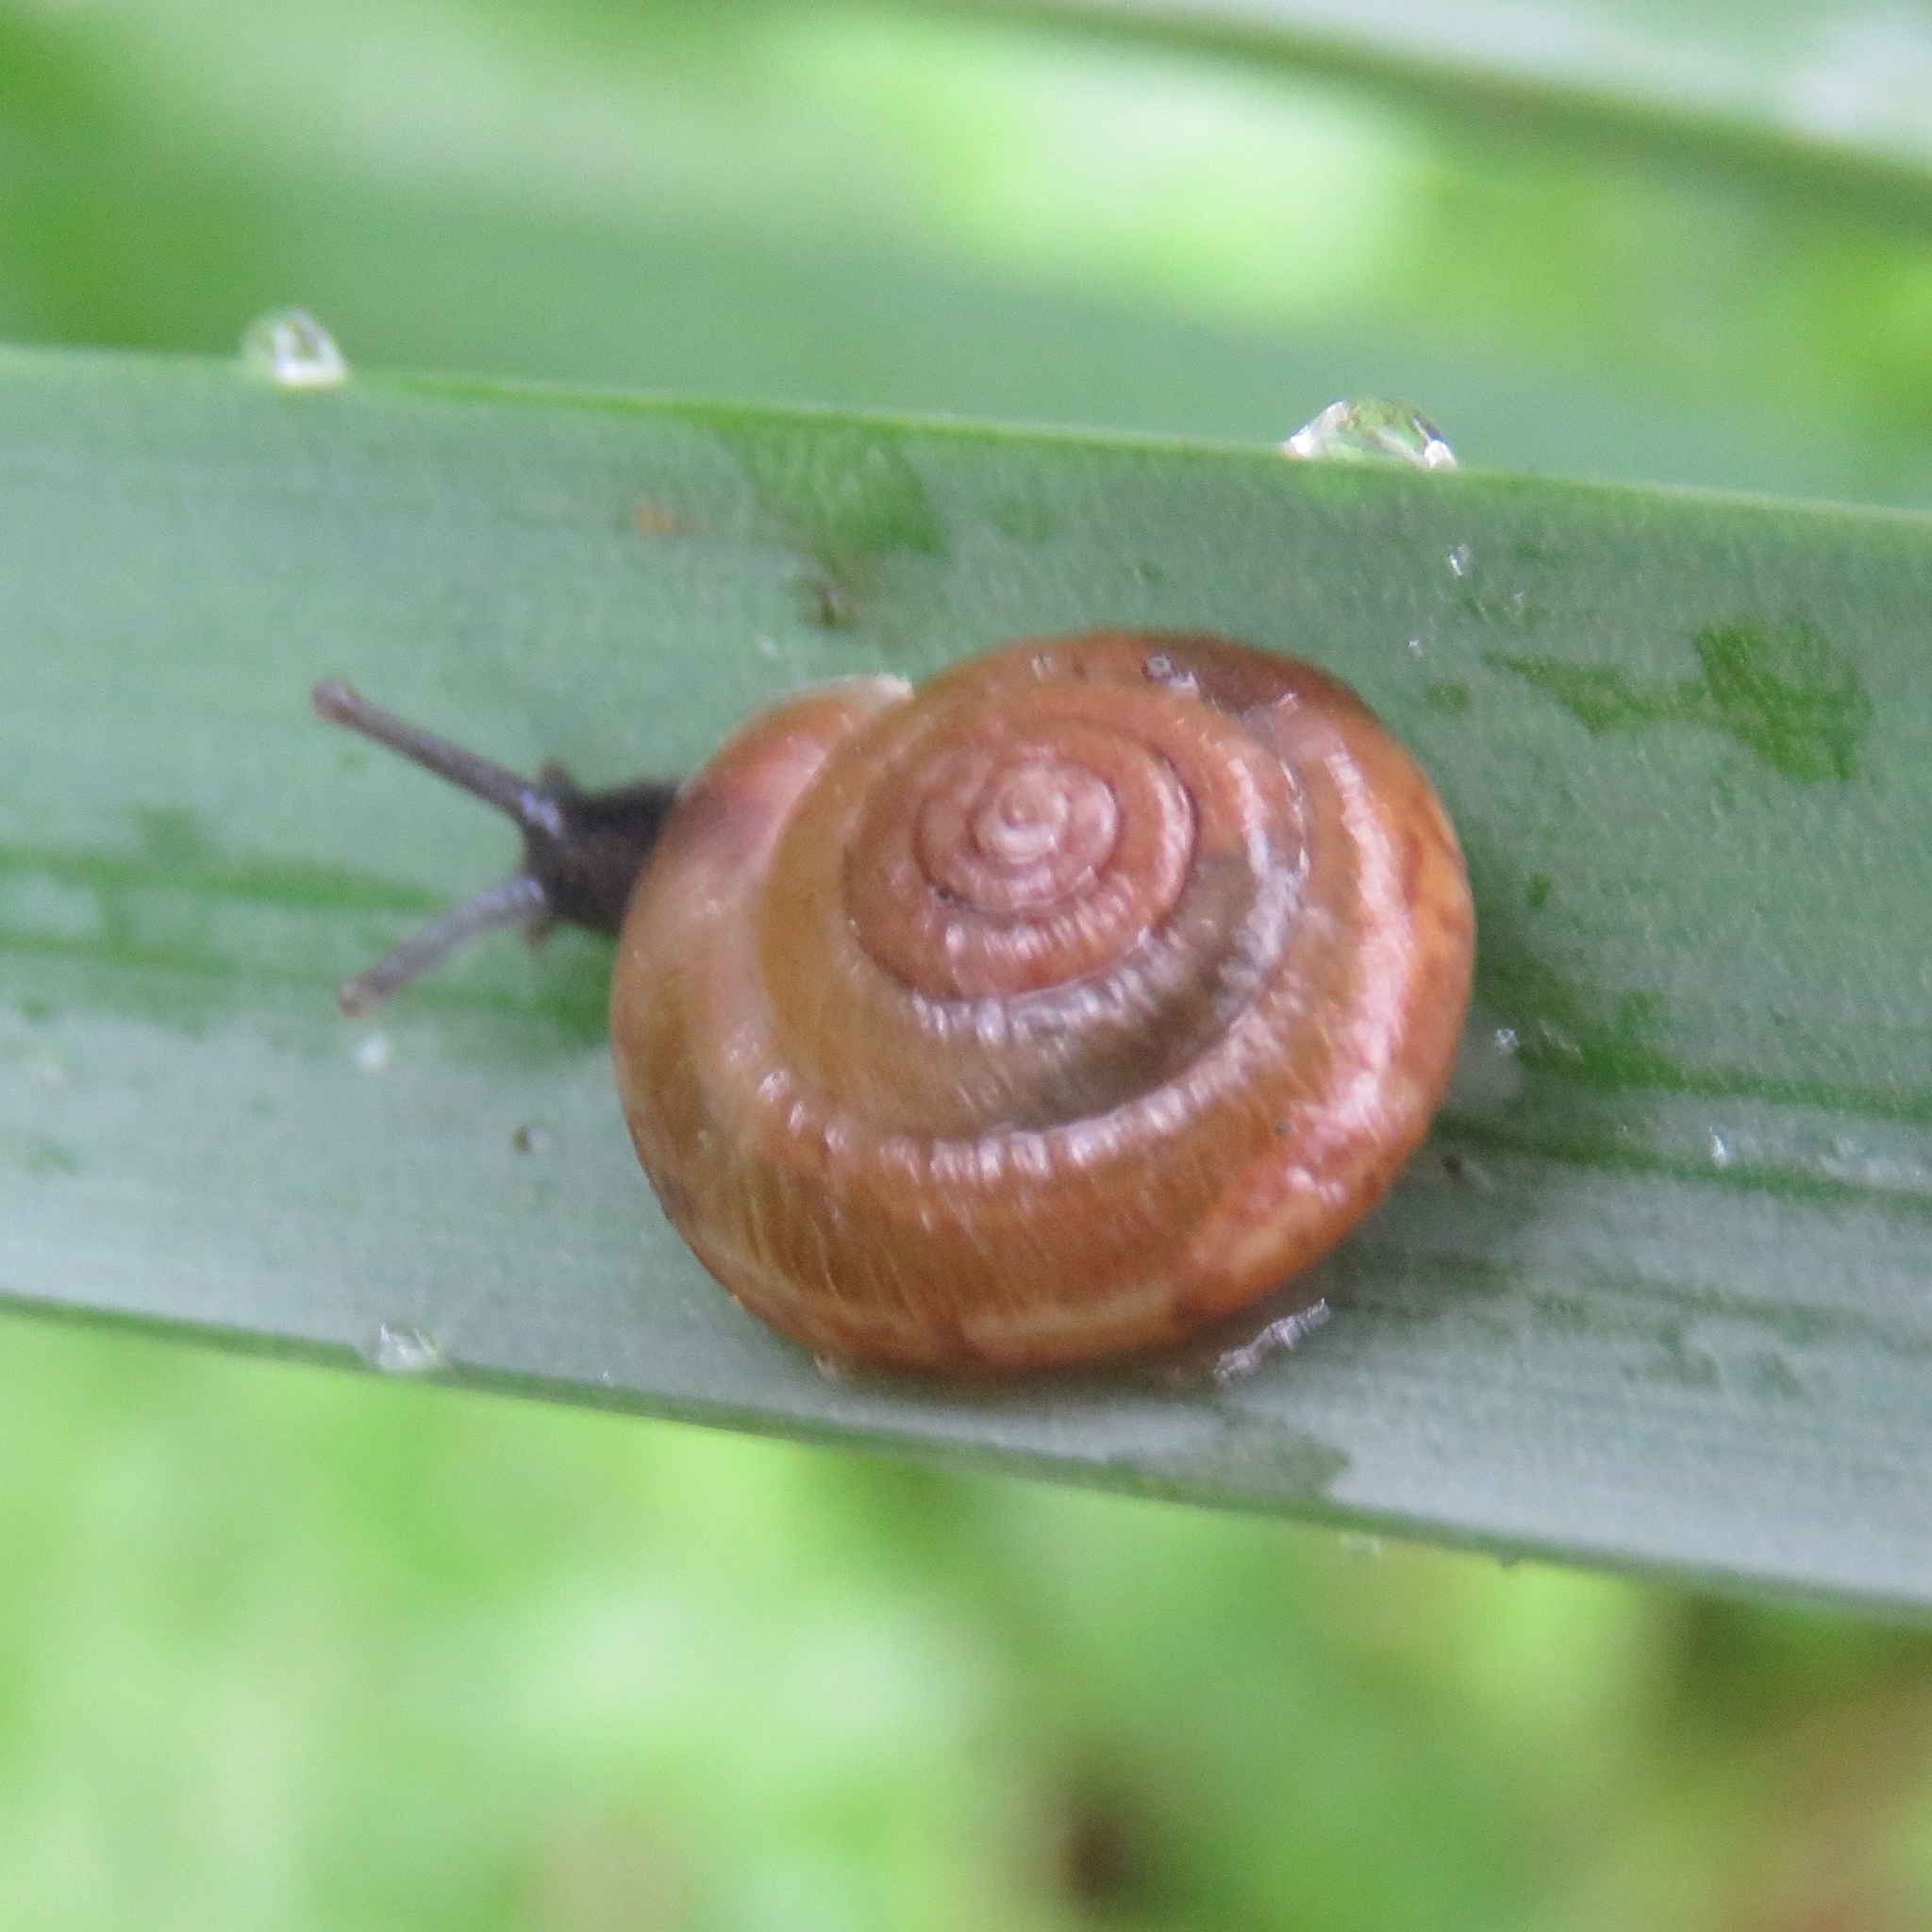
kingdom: Animalia
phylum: Mollusca
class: Gastropoda
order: Stylommatophora
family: Hygromiidae
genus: Trochulus
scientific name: Trochulus striolatus
